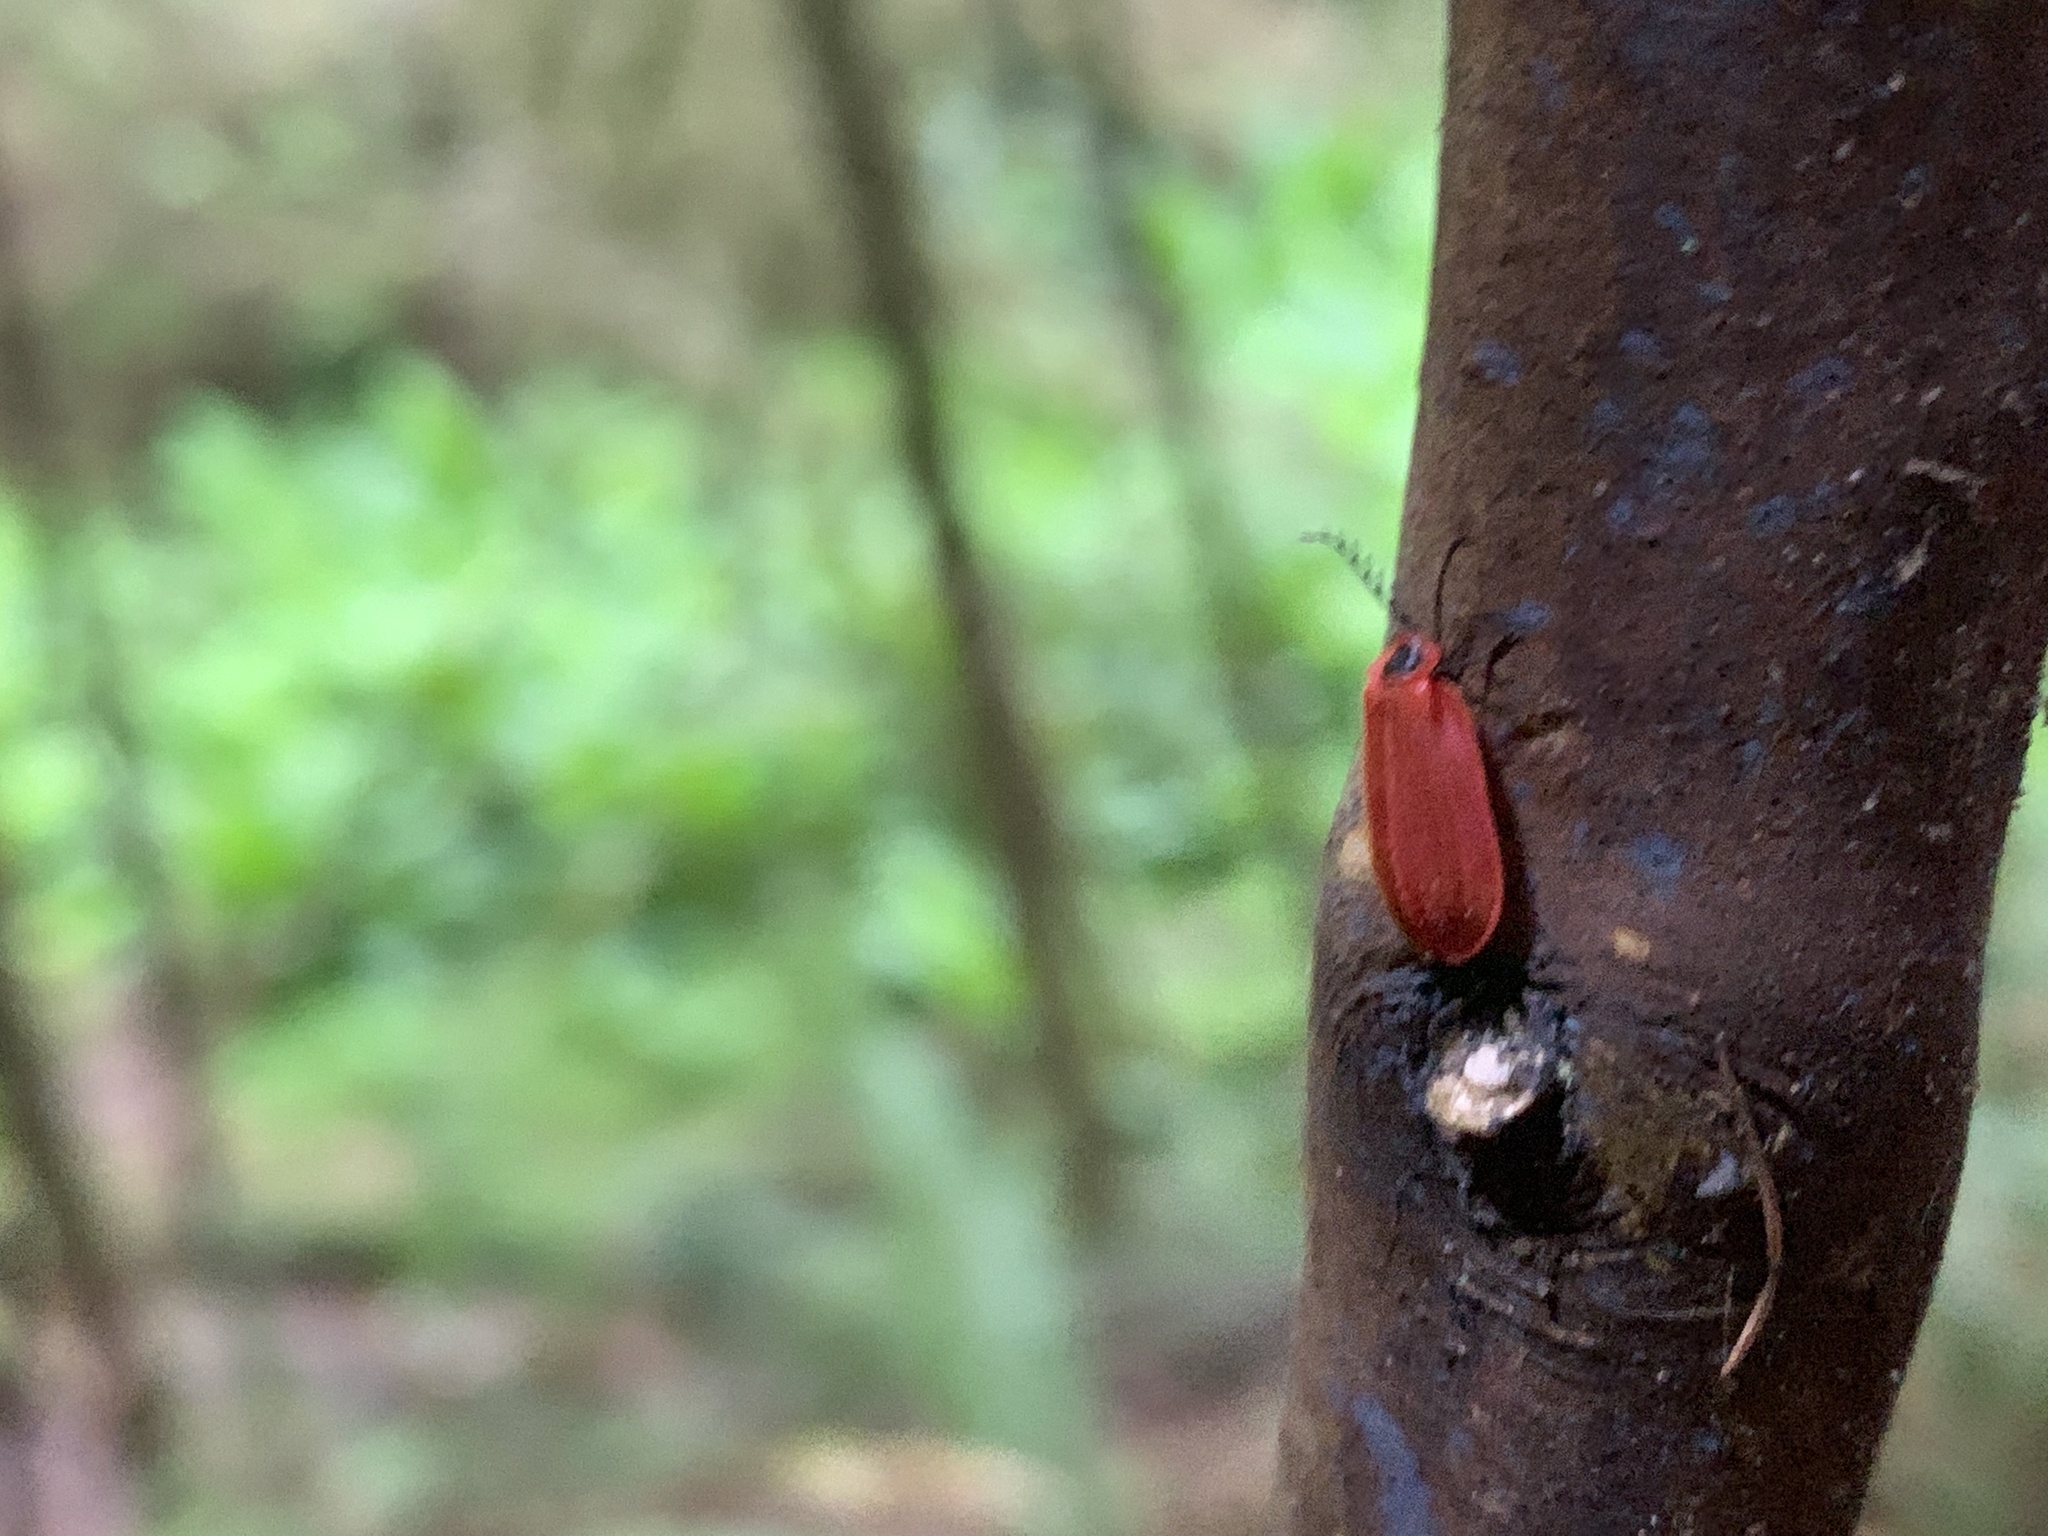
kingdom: Animalia
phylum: Arthropoda
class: Insecta
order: Coleoptera
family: Omethidae
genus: Matheteus
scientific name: Matheteus theveneti
